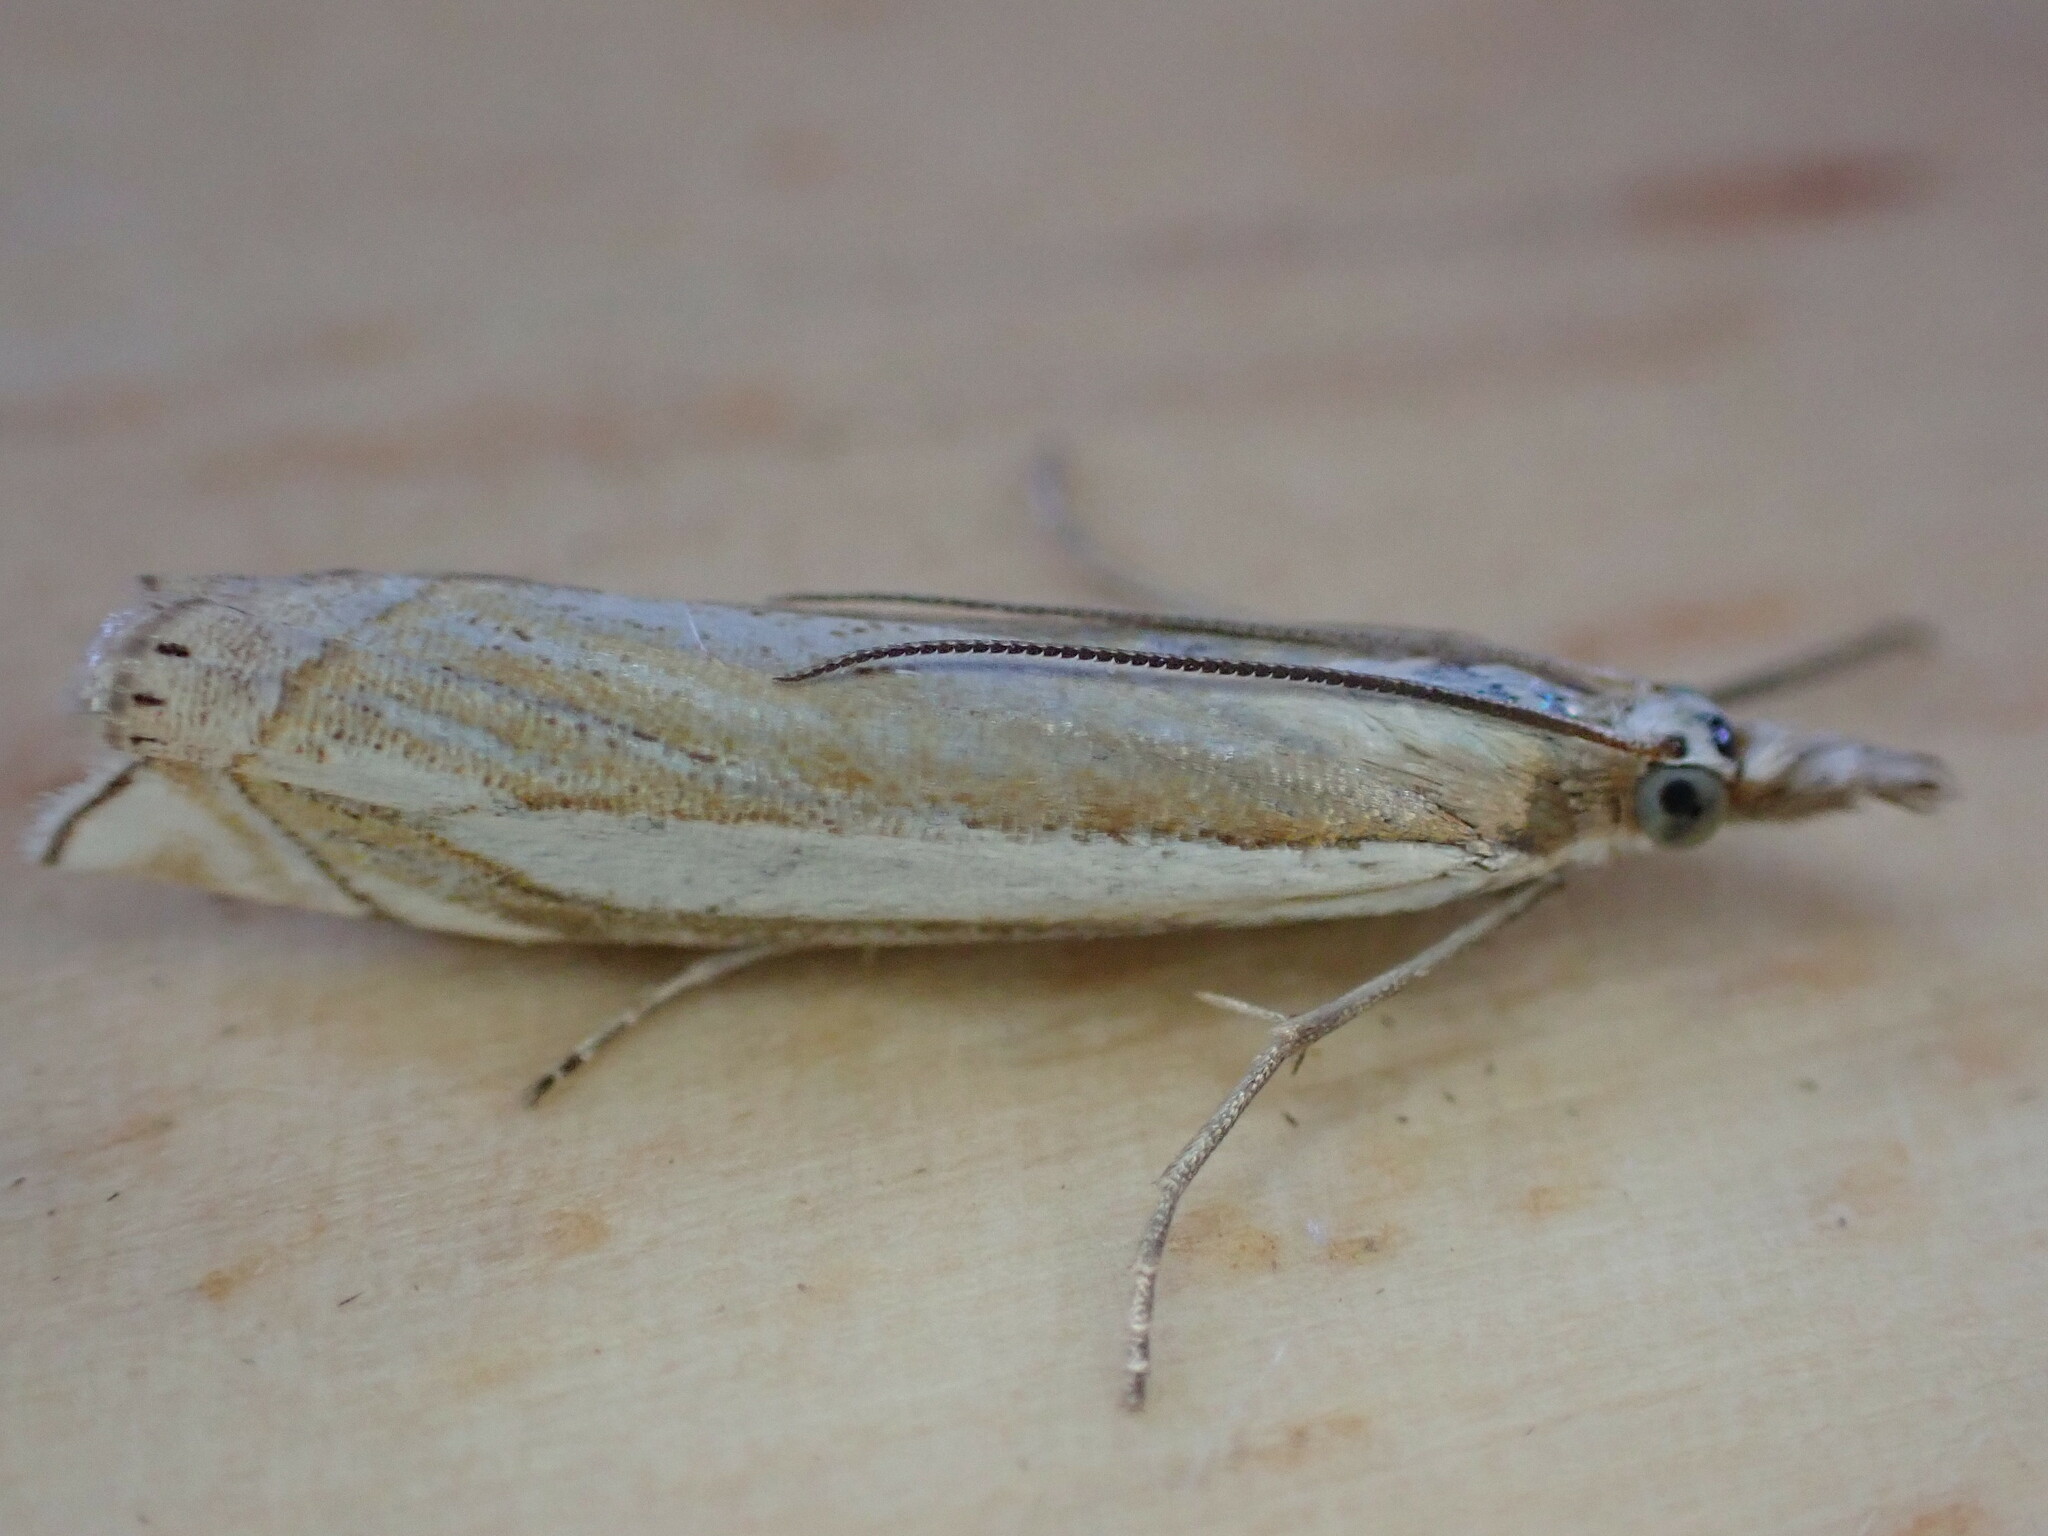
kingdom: Animalia
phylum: Arthropoda
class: Insecta
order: Lepidoptera
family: Crambidae
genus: Crambus
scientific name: Crambus pascuella
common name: Inlaid grass-veneer
